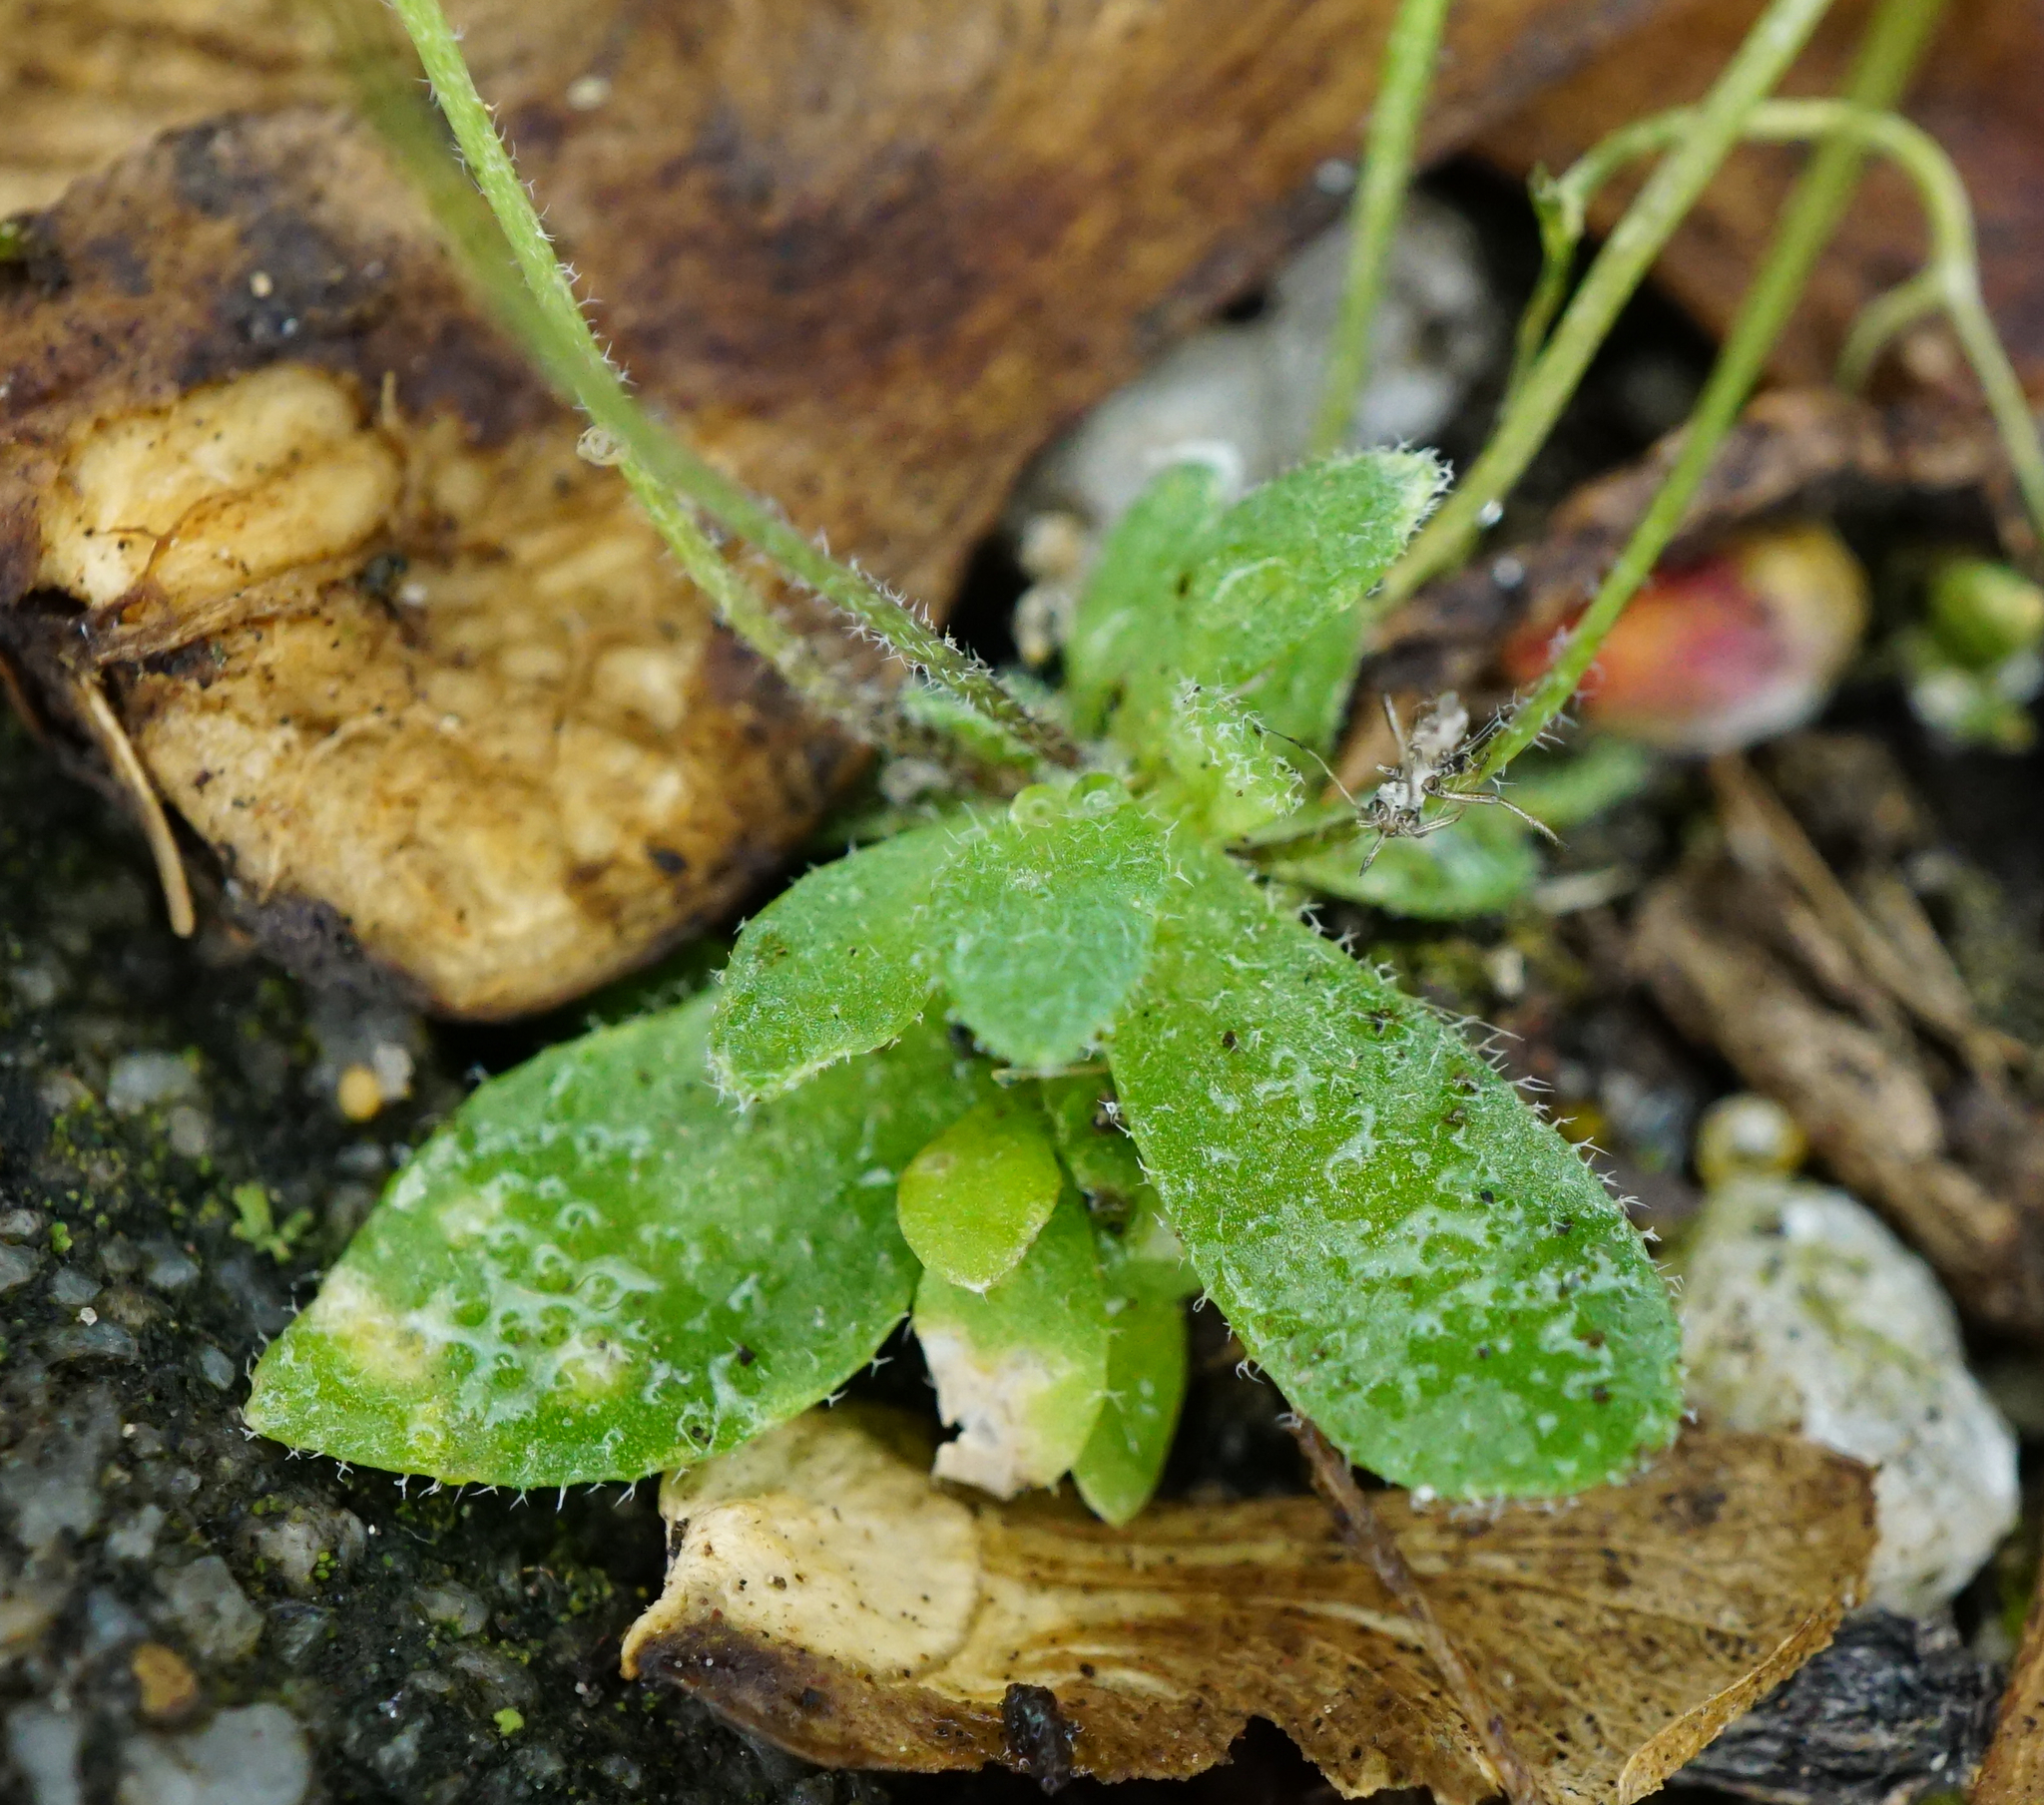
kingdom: Plantae
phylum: Tracheophyta
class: Magnoliopsida
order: Brassicales
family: Brassicaceae
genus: Draba
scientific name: Draba verna
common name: Spring draba
